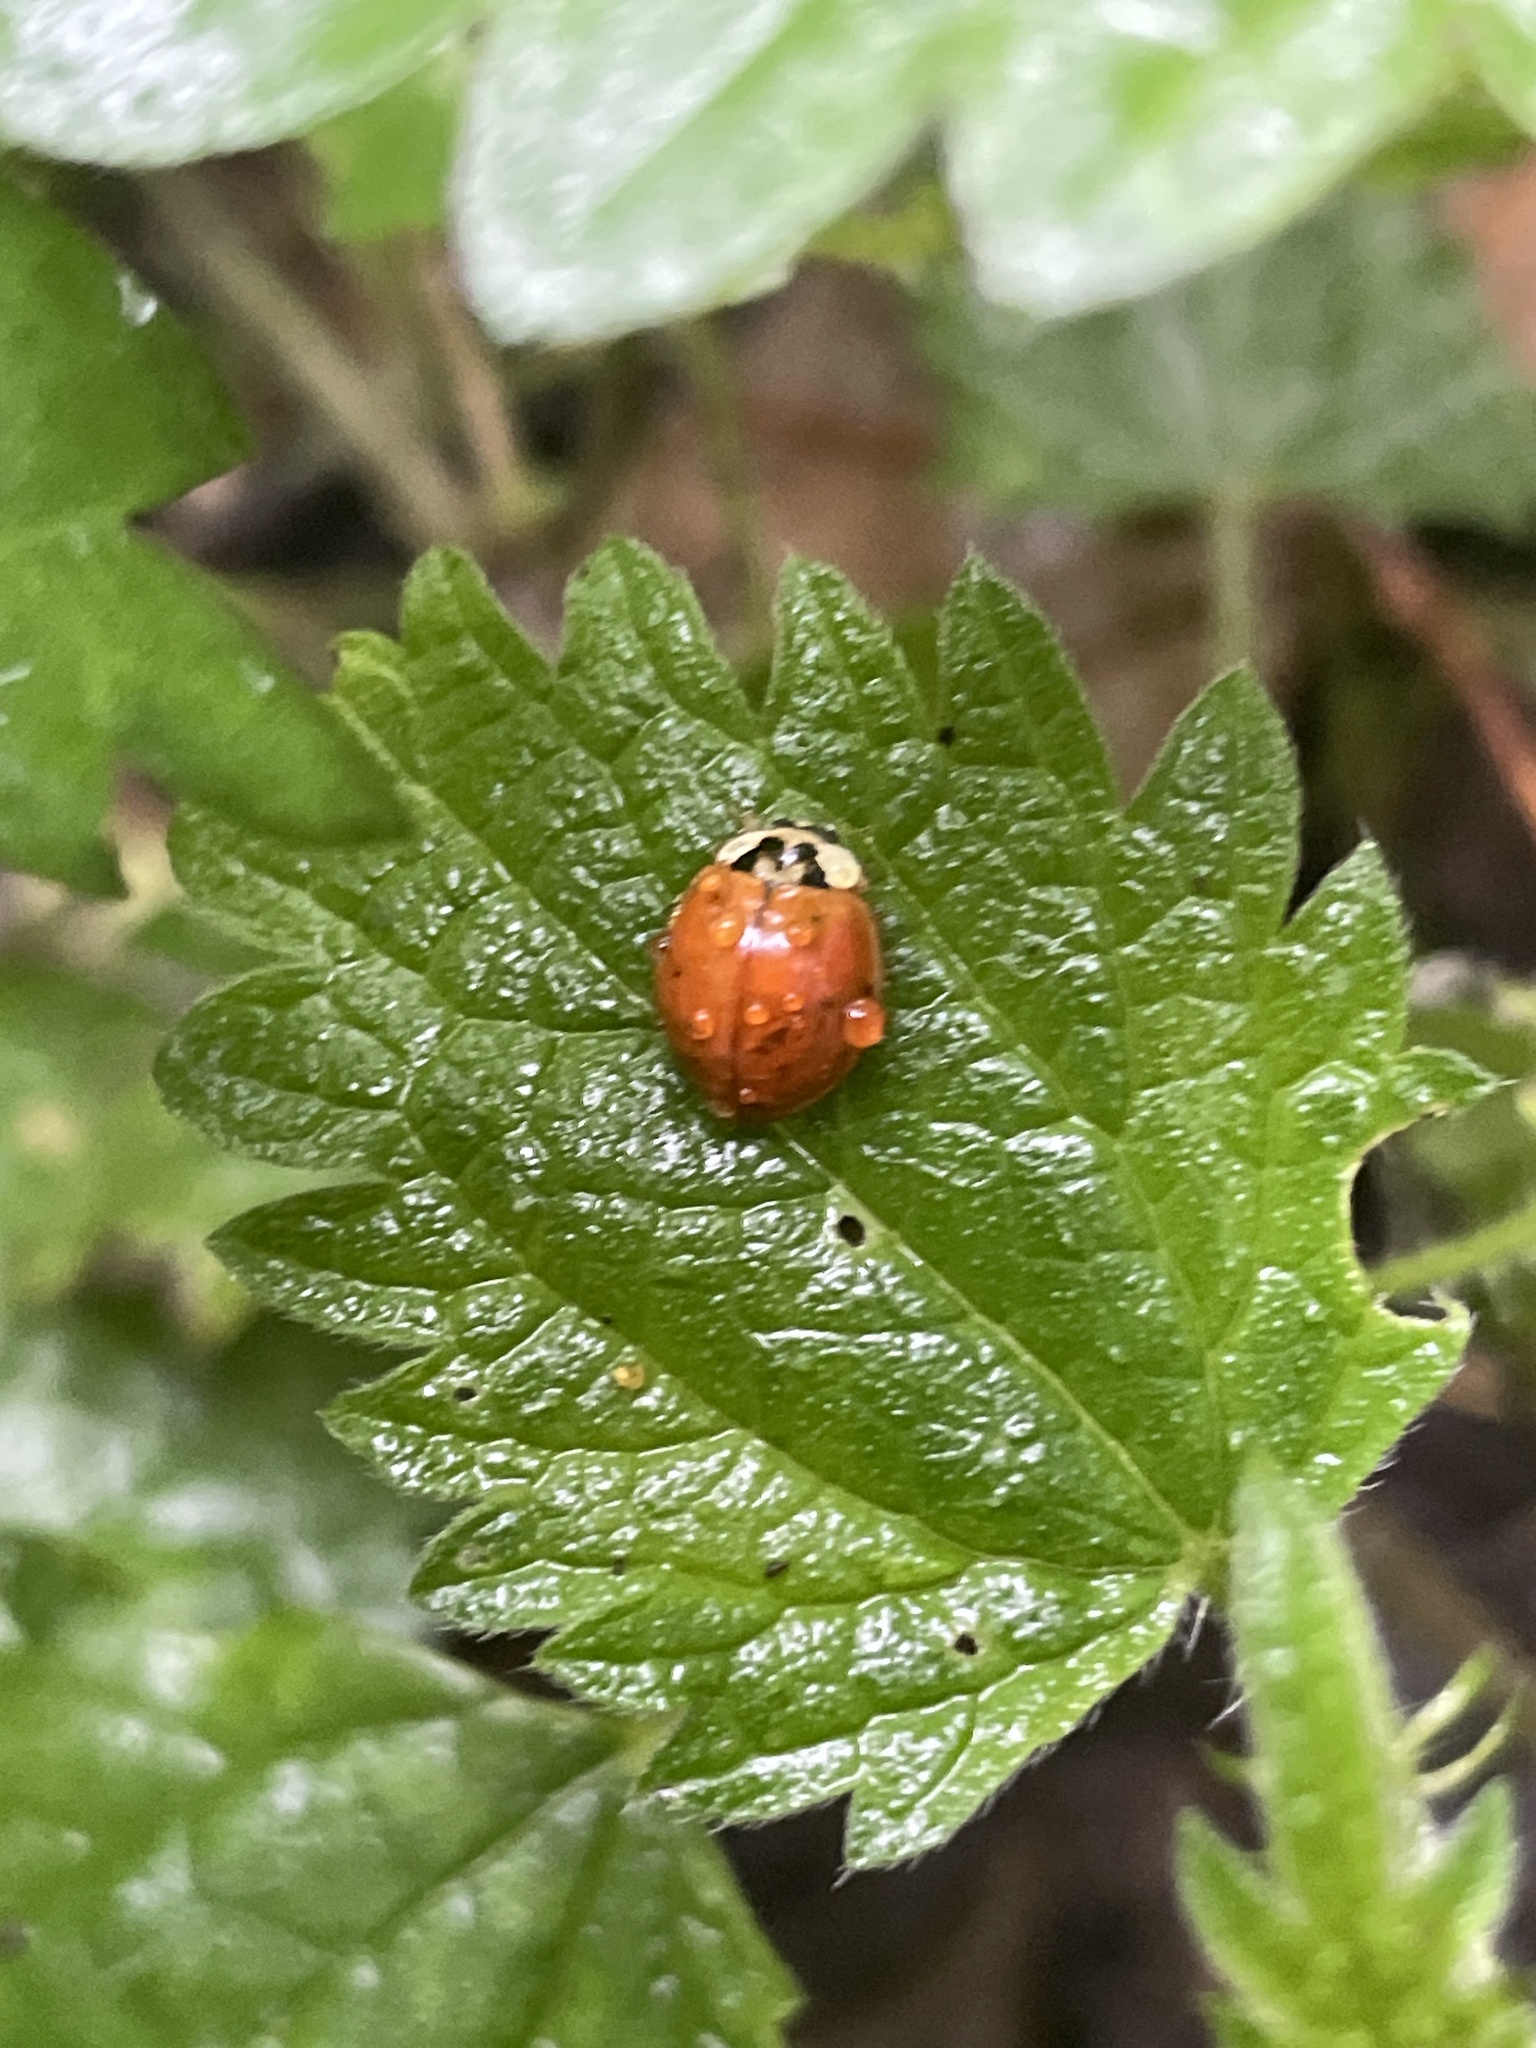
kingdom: Animalia
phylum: Arthropoda
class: Insecta
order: Coleoptera
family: Coccinellidae
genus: Harmonia
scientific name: Harmonia axyridis
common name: Harlequin ladybird
